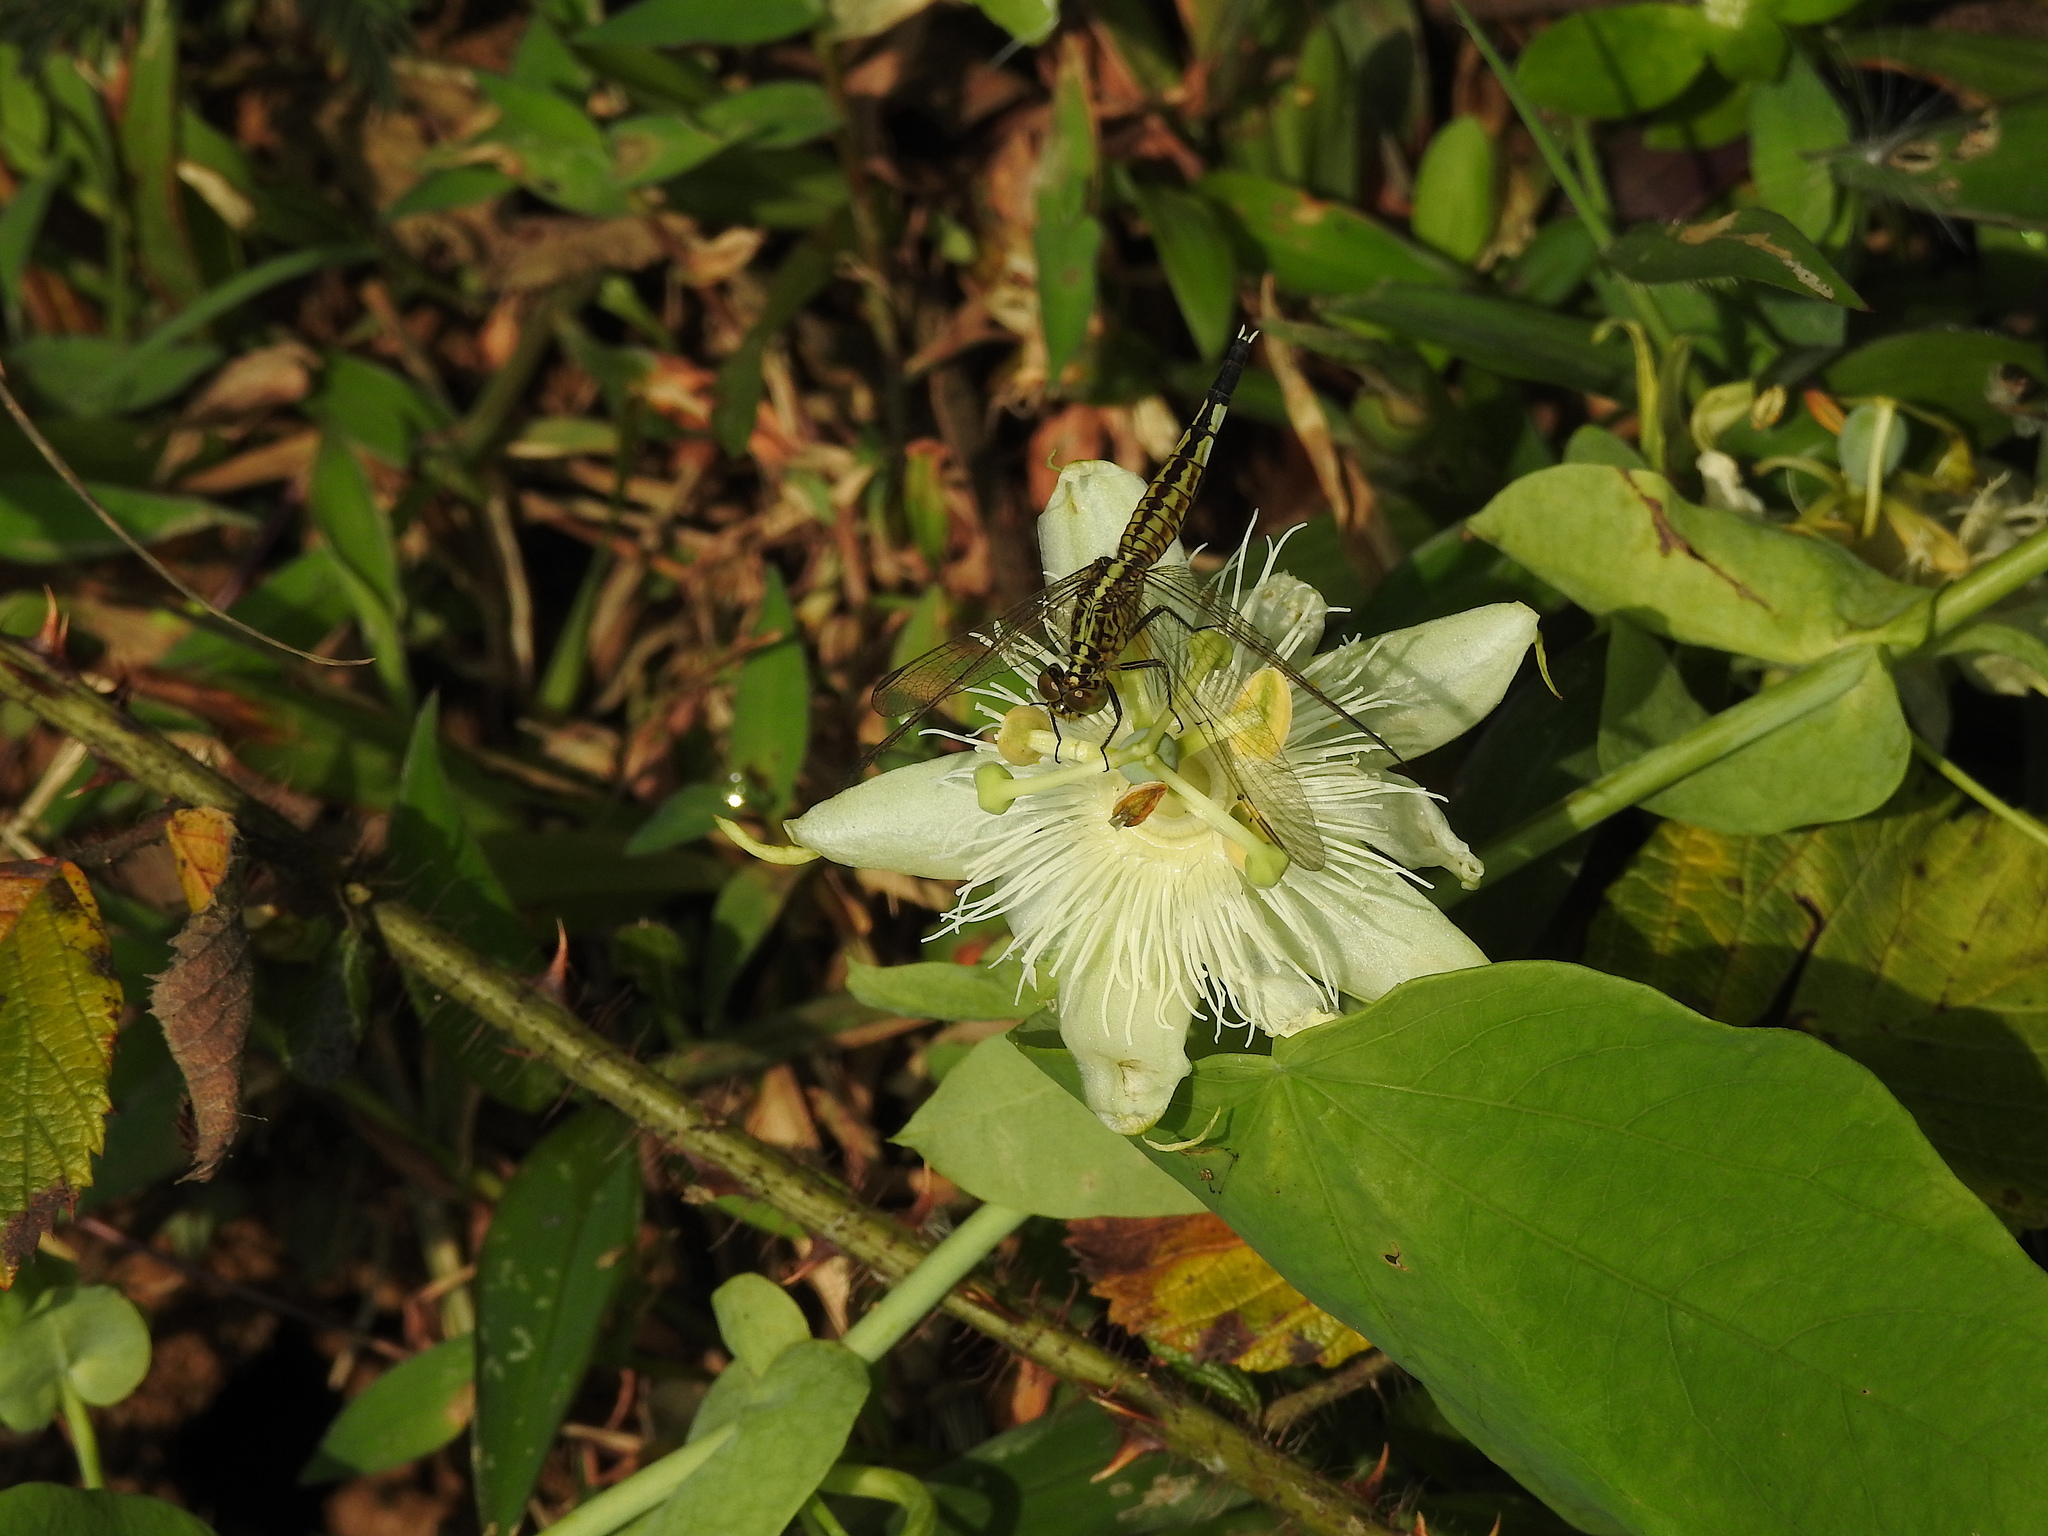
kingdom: Animalia
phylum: Arthropoda
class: Insecta
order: Odonata
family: Libellulidae
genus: Acisoma
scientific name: Acisoma panorpoides
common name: Asian pintail
